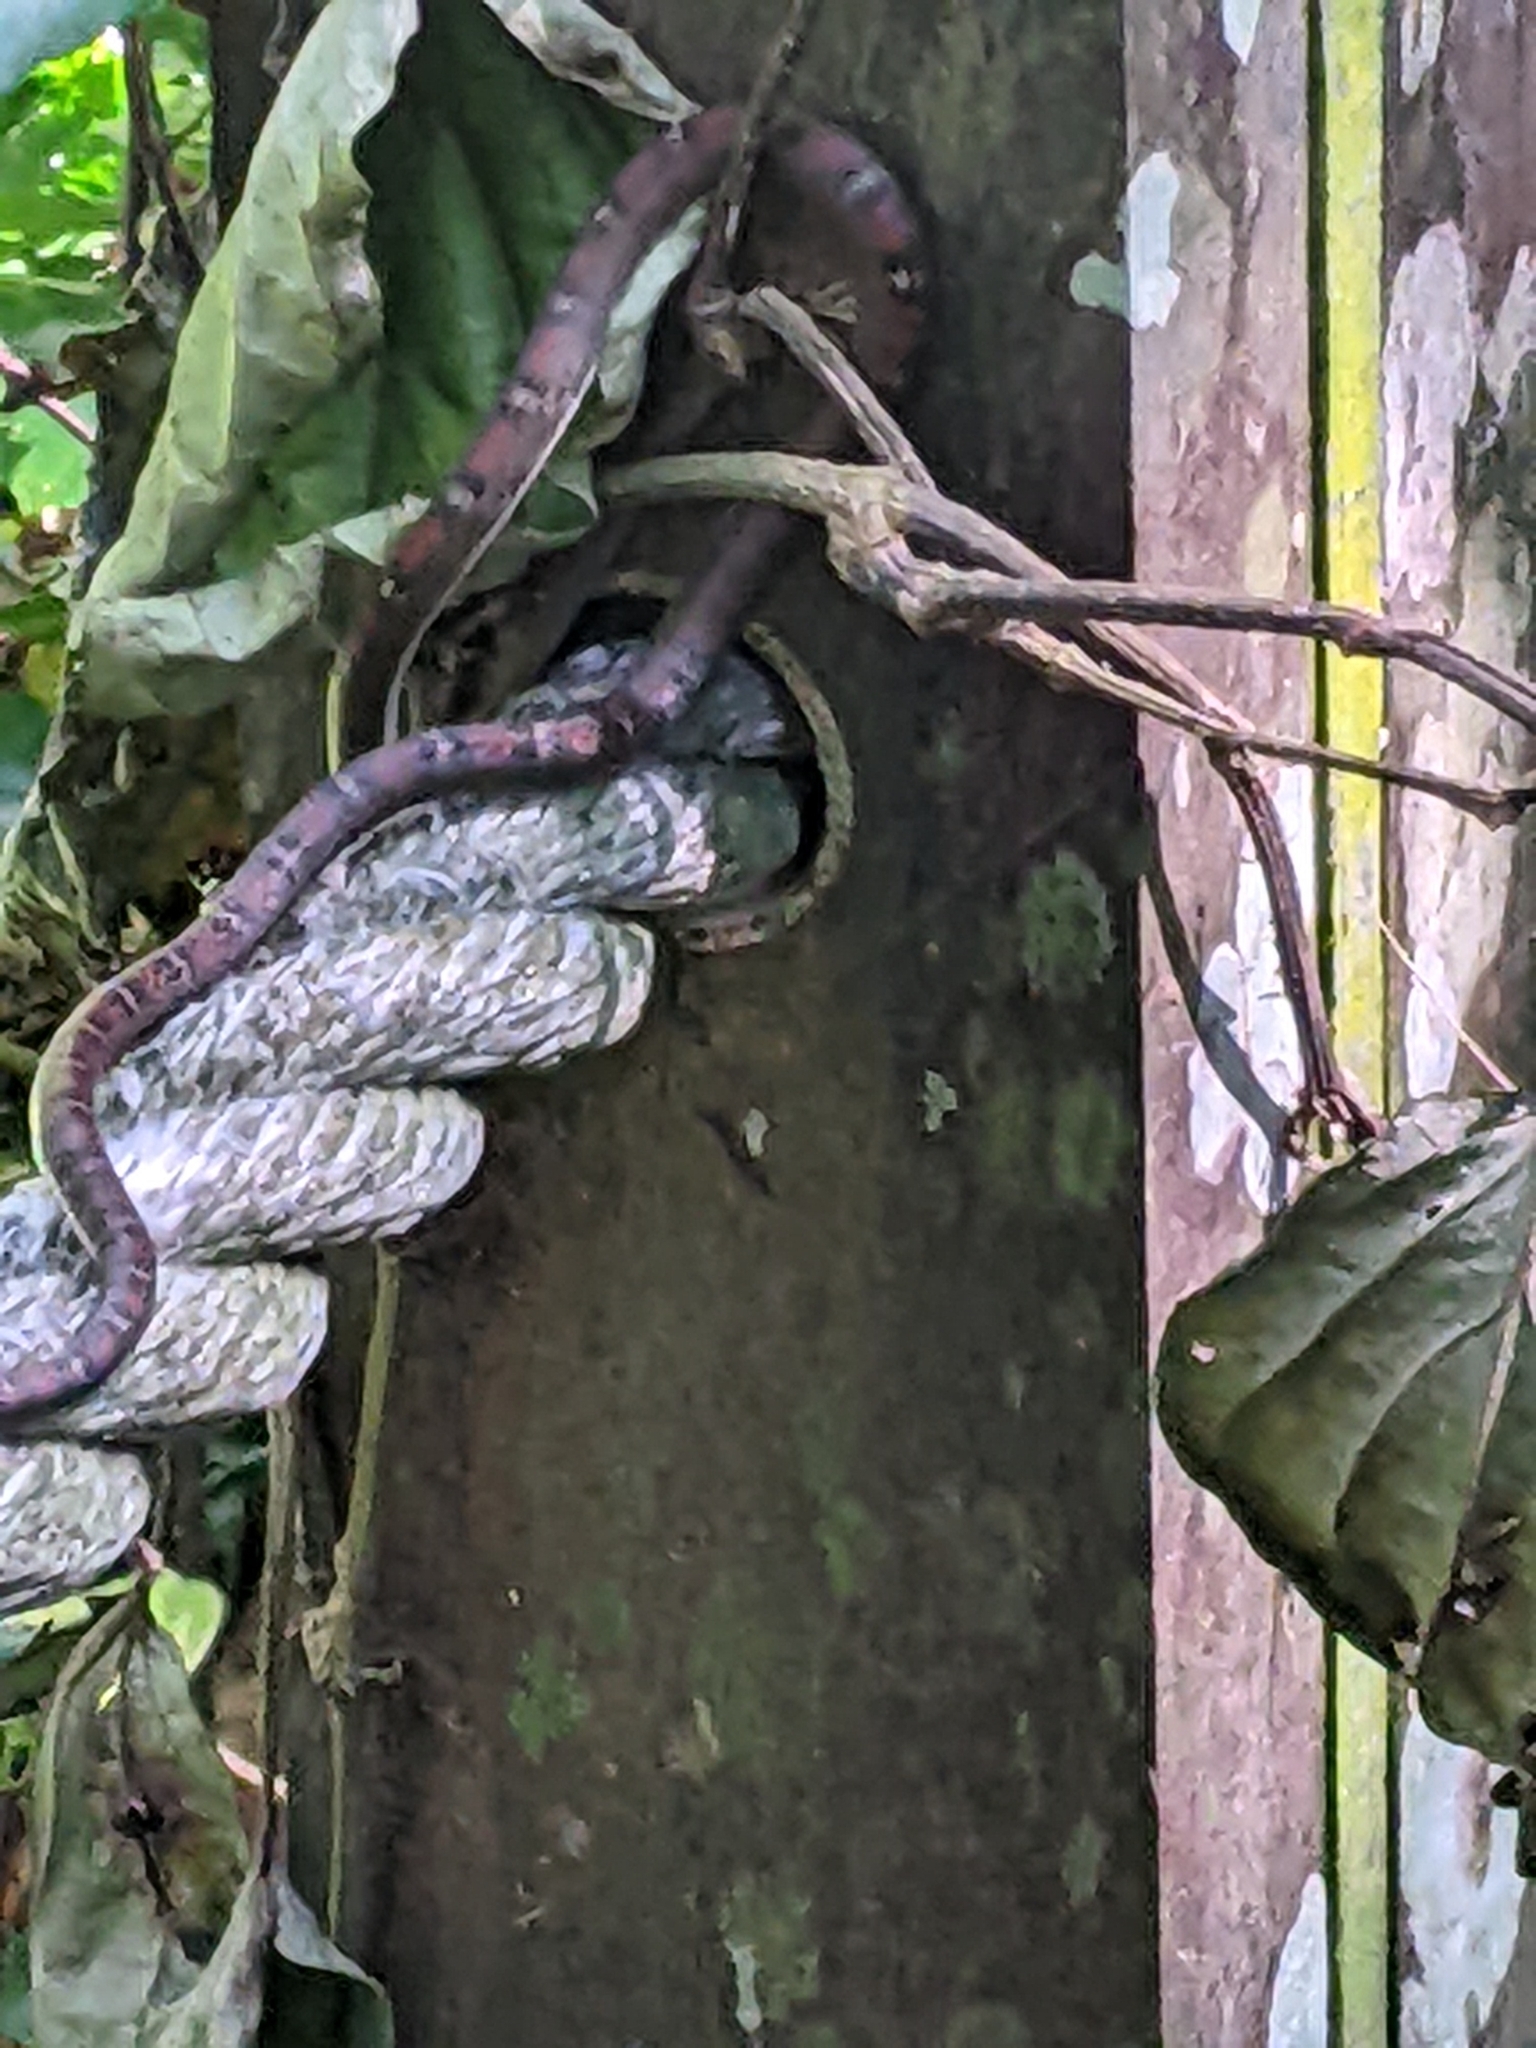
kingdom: Animalia
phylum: Chordata
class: Squamata
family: Colubridae
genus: Chrysopelea
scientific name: Chrysopelea pelias
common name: Twin-barred tree snake
